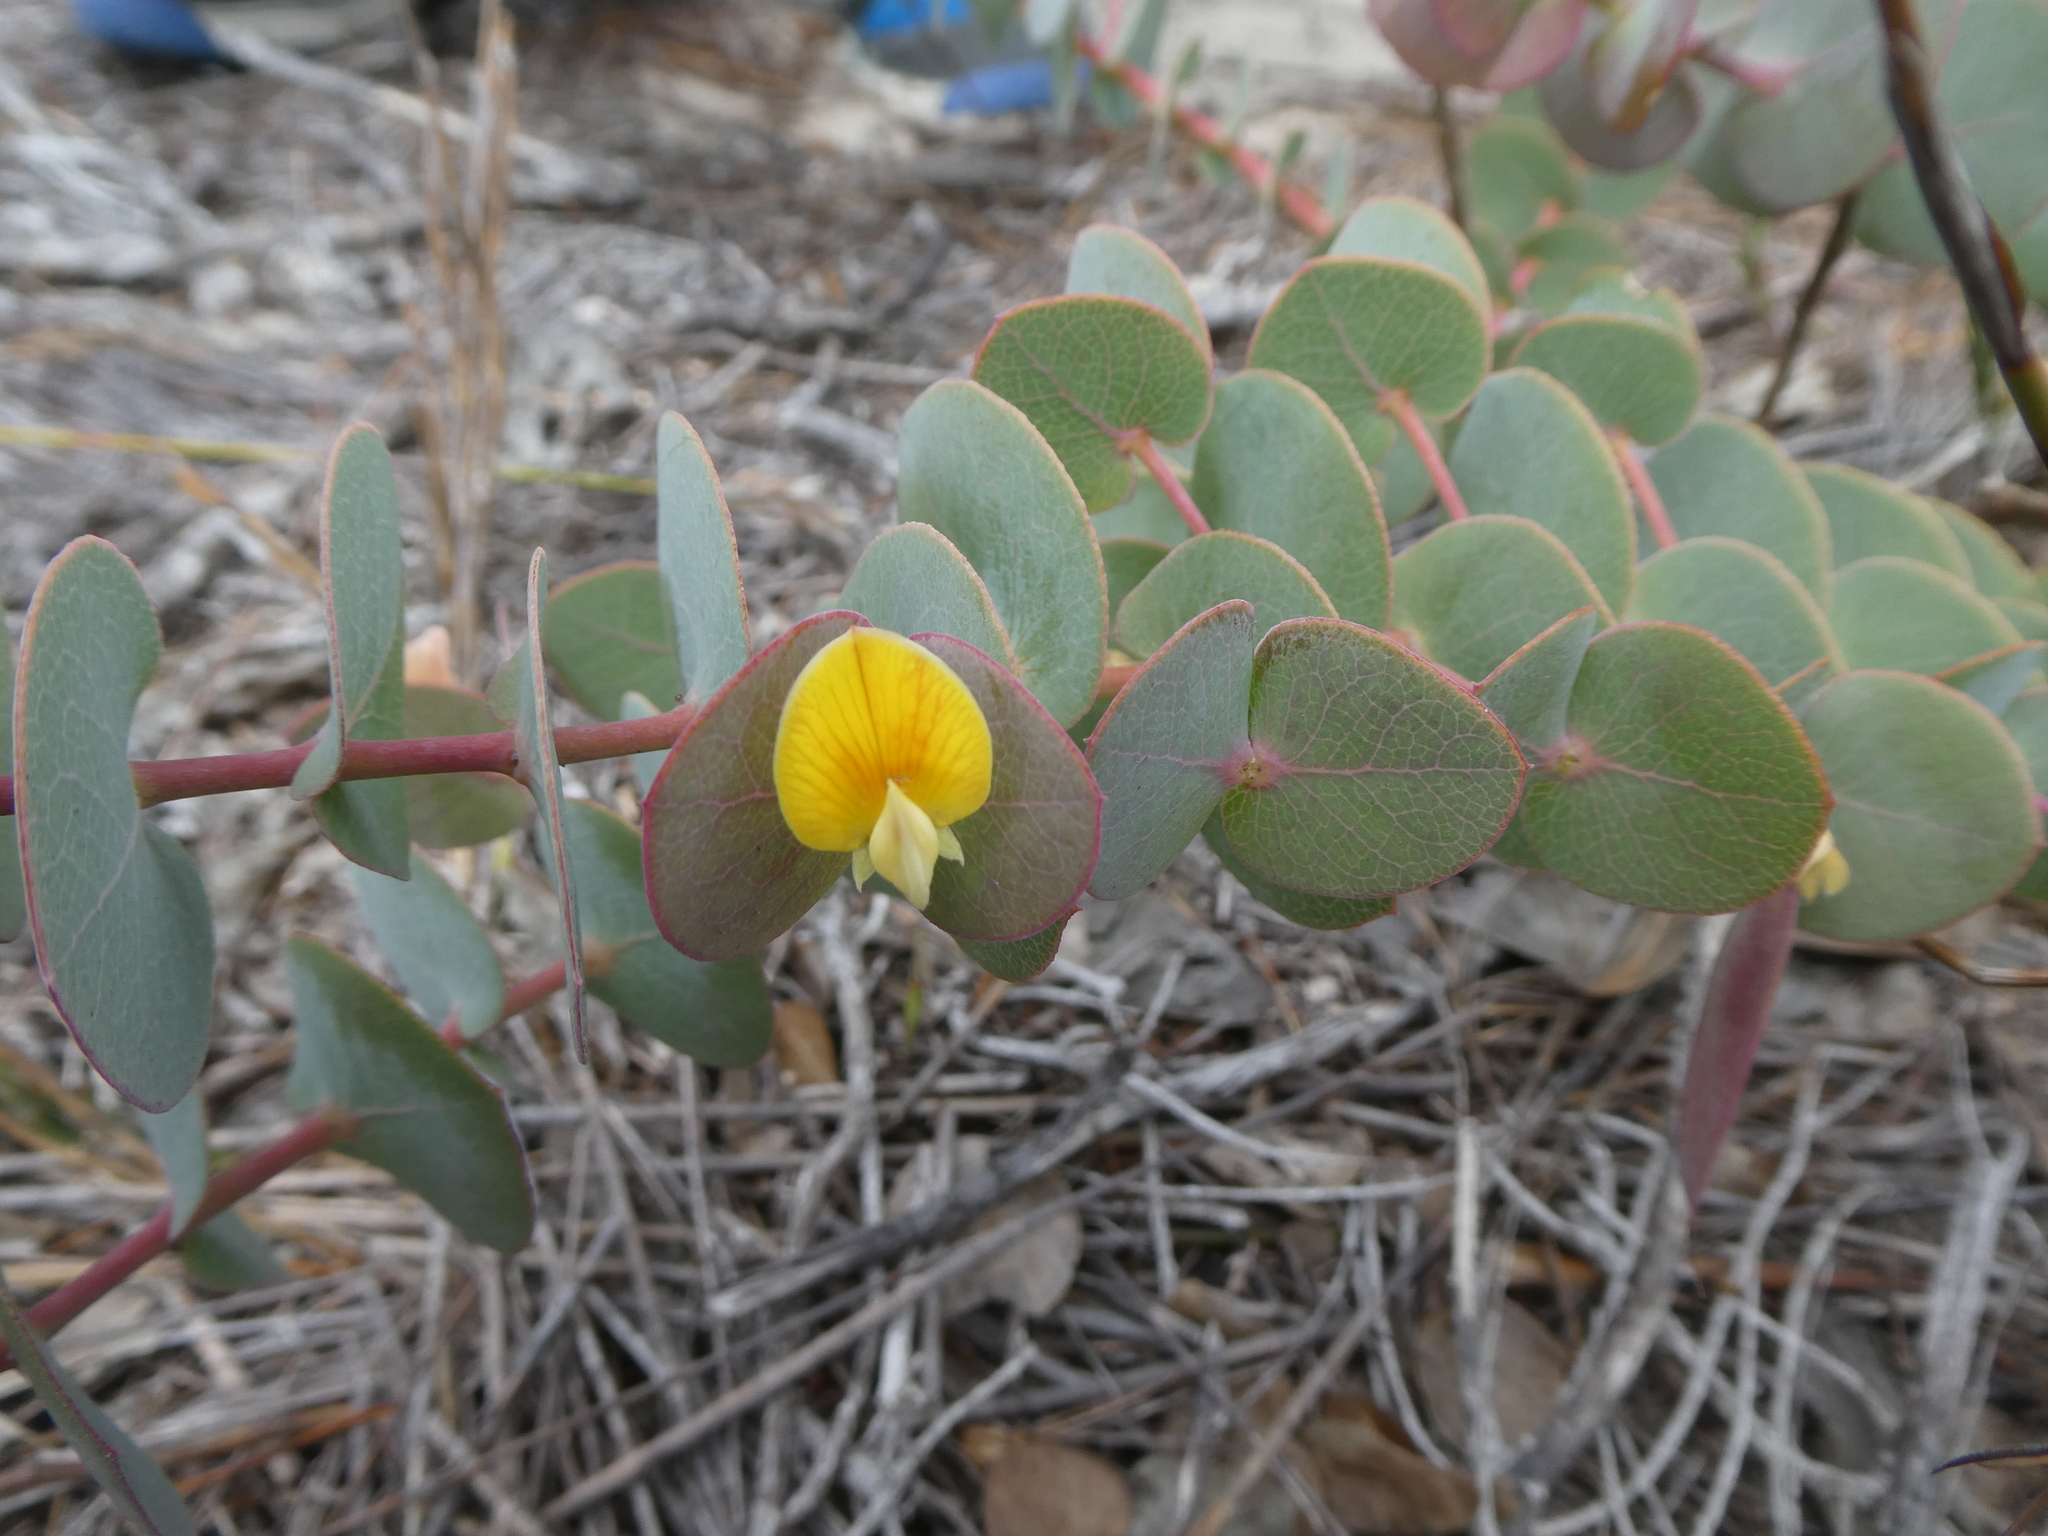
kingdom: Plantae
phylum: Tracheophyta
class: Magnoliopsida
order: Fabales
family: Fabaceae
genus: Rafnia
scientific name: Rafnia acuminata
